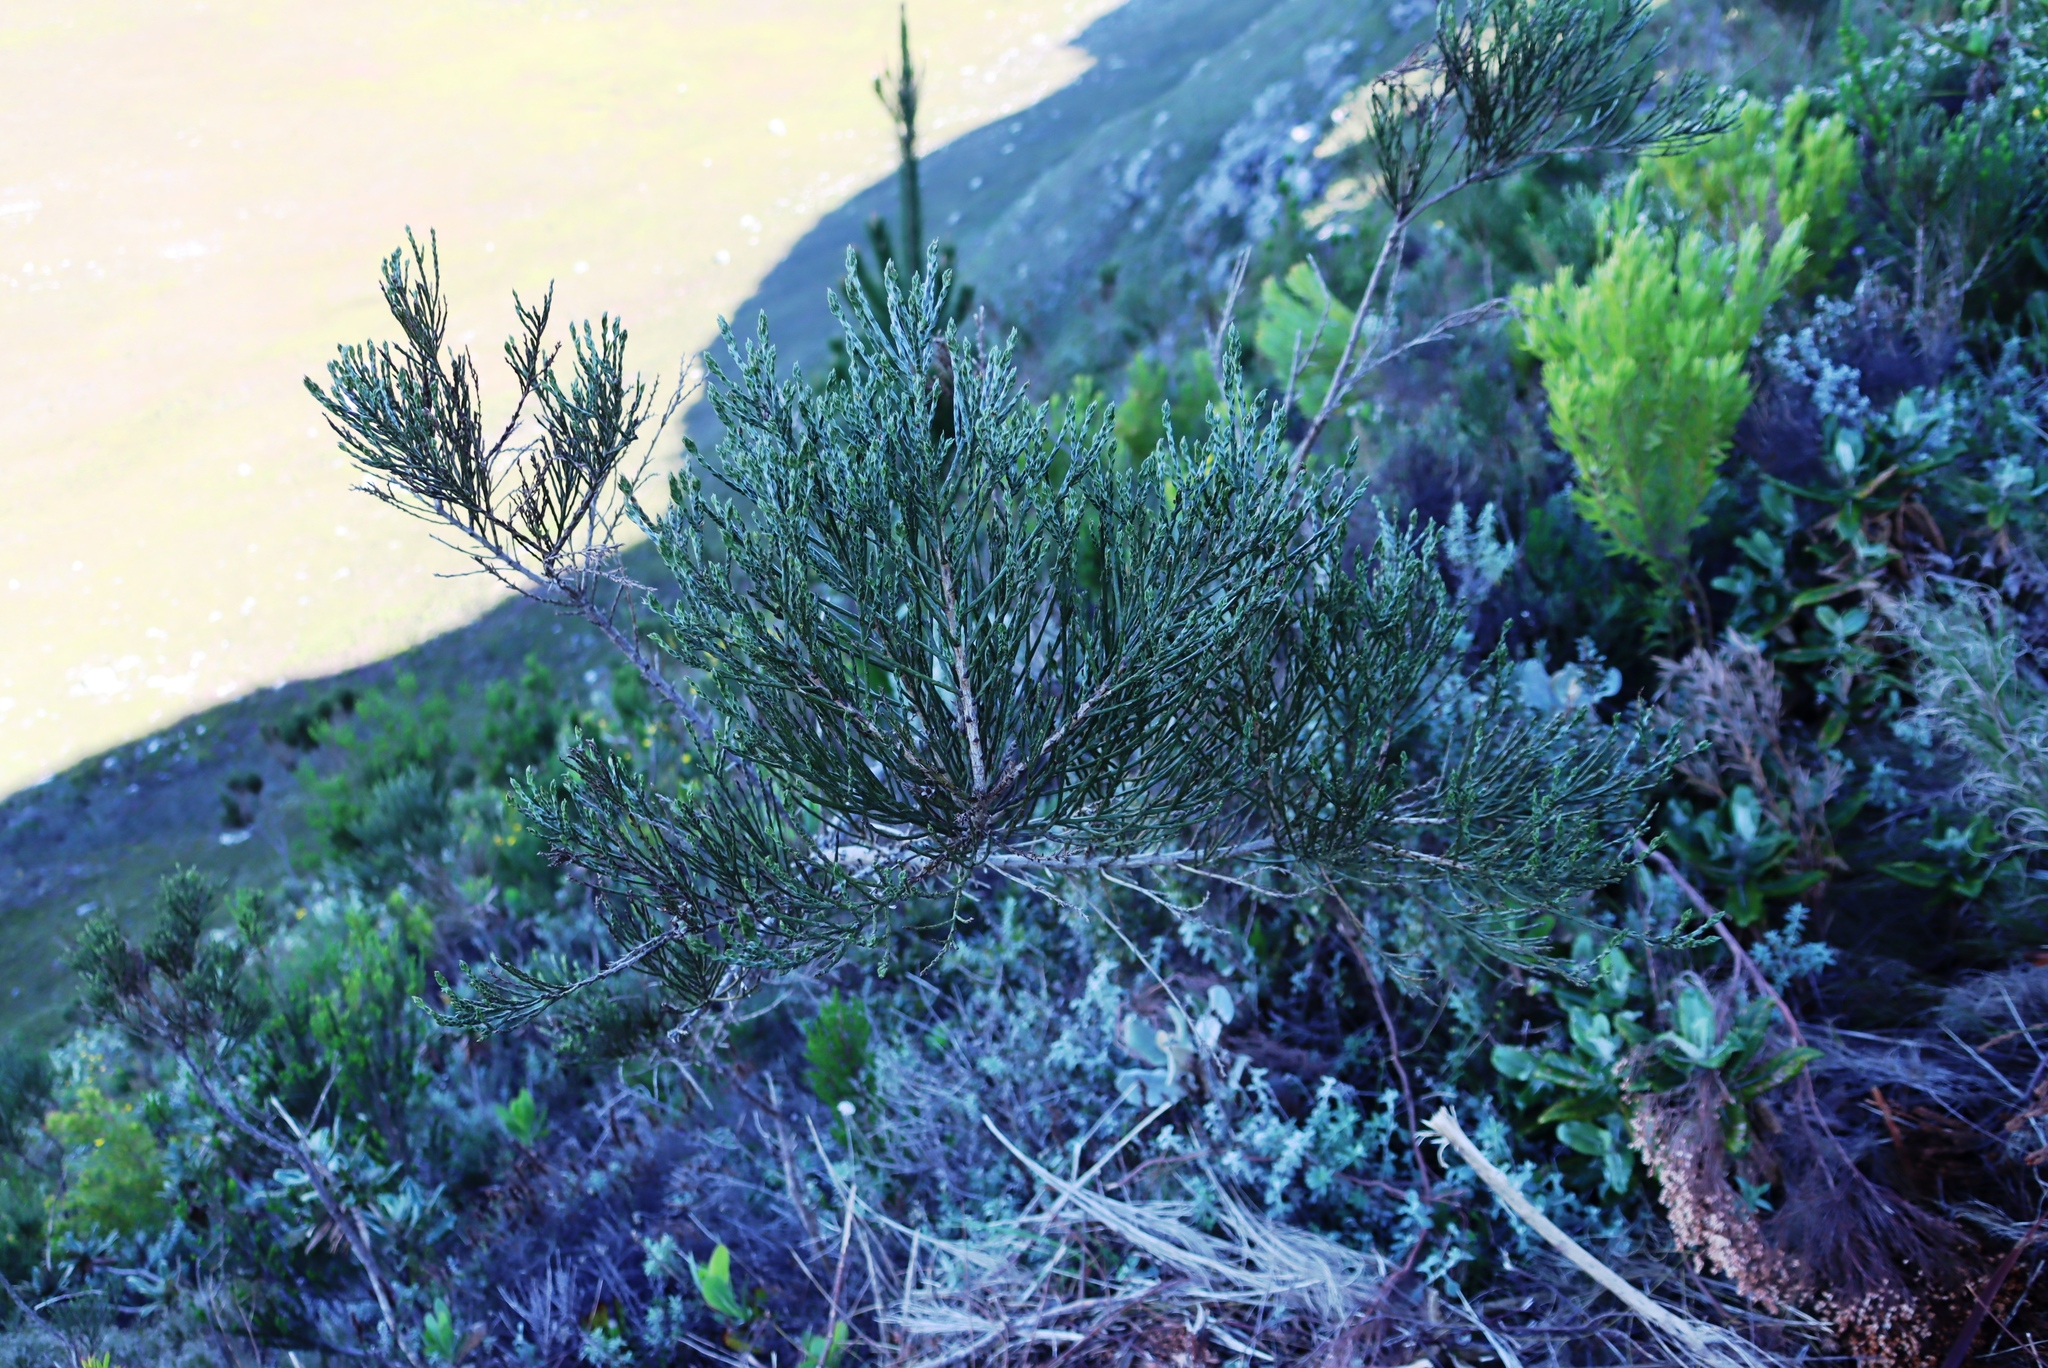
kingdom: Plantae
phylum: Tracheophyta
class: Magnoliopsida
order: Fabales
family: Fabaceae
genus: Psoralea
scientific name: Psoralea congesta
